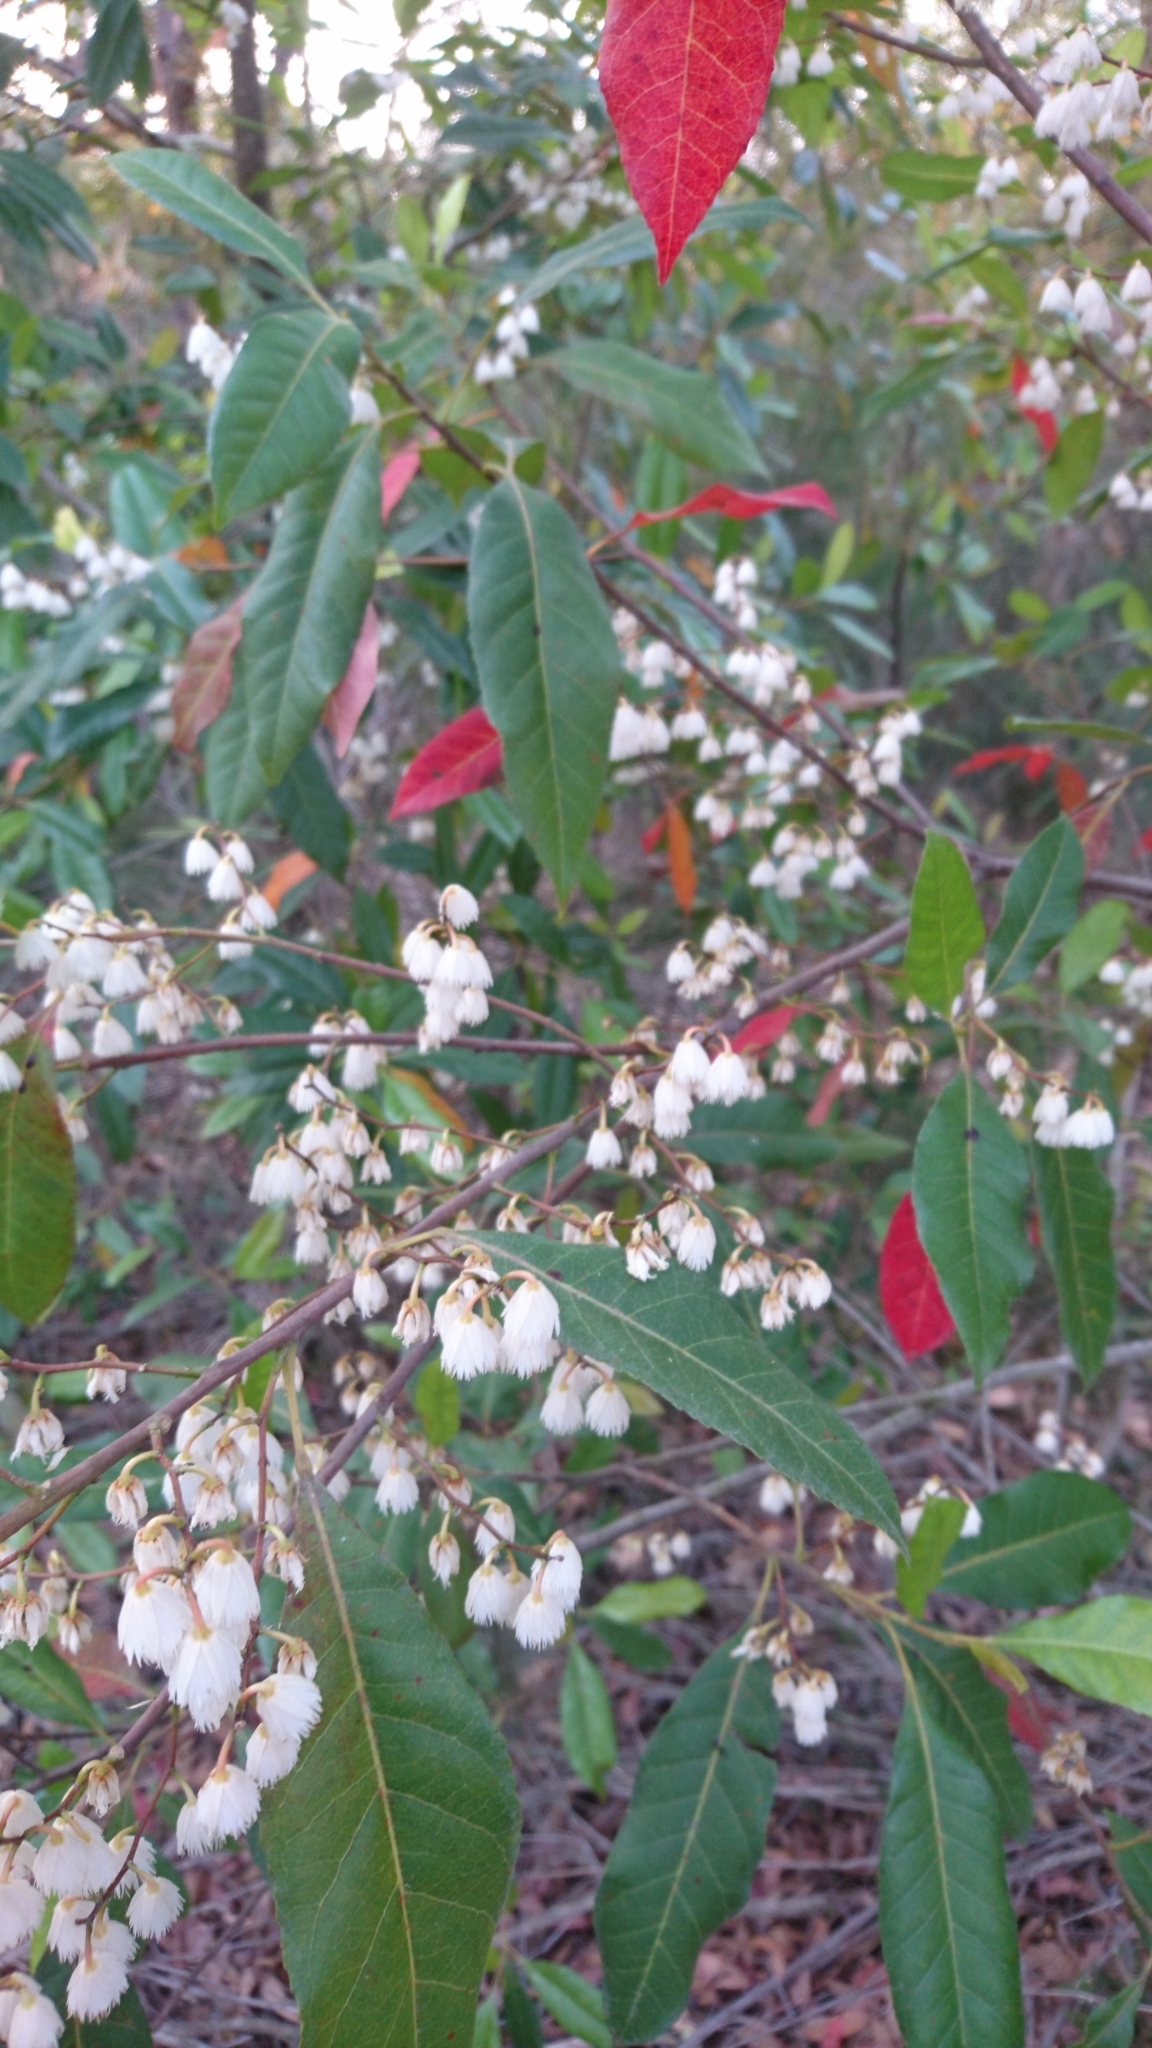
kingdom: Plantae
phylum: Tracheophyta
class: Magnoliopsida
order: Oxalidales
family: Elaeocarpaceae
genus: Elaeocarpus
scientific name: Elaeocarpus reticulatus
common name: Ash quandong
